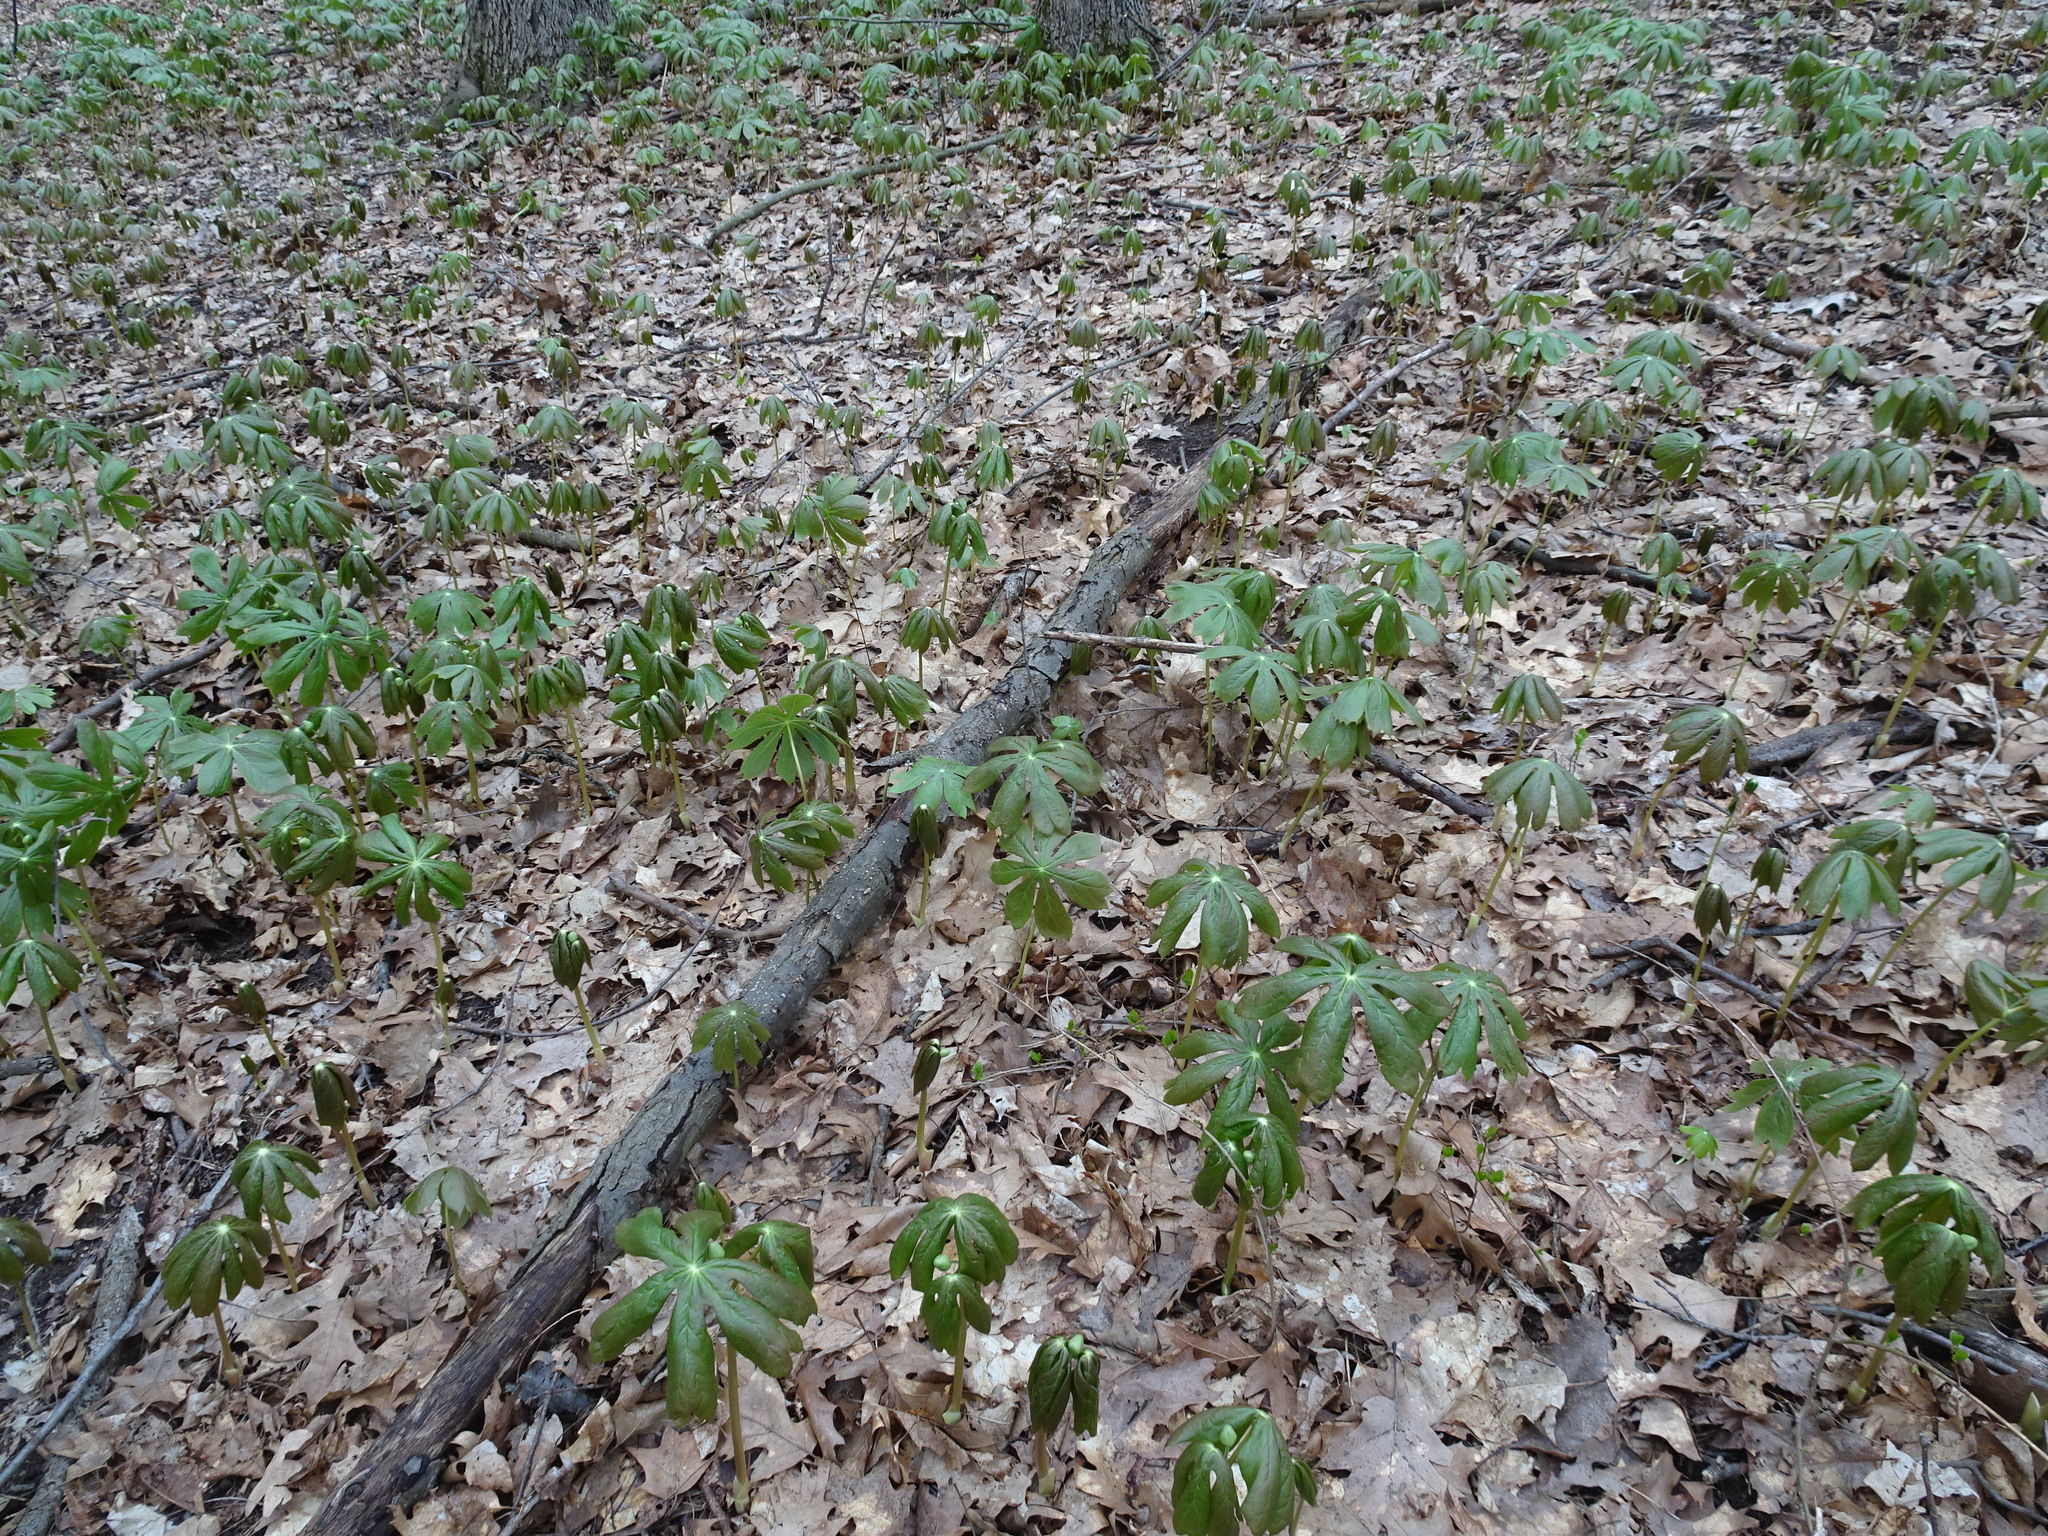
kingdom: Plantae
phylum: Tracheophyta
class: Magnoliopsida
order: Ranunculales
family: Berberidaceae
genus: Podophyllum
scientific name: Podophyllum peltatum
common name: Wild mandrake
